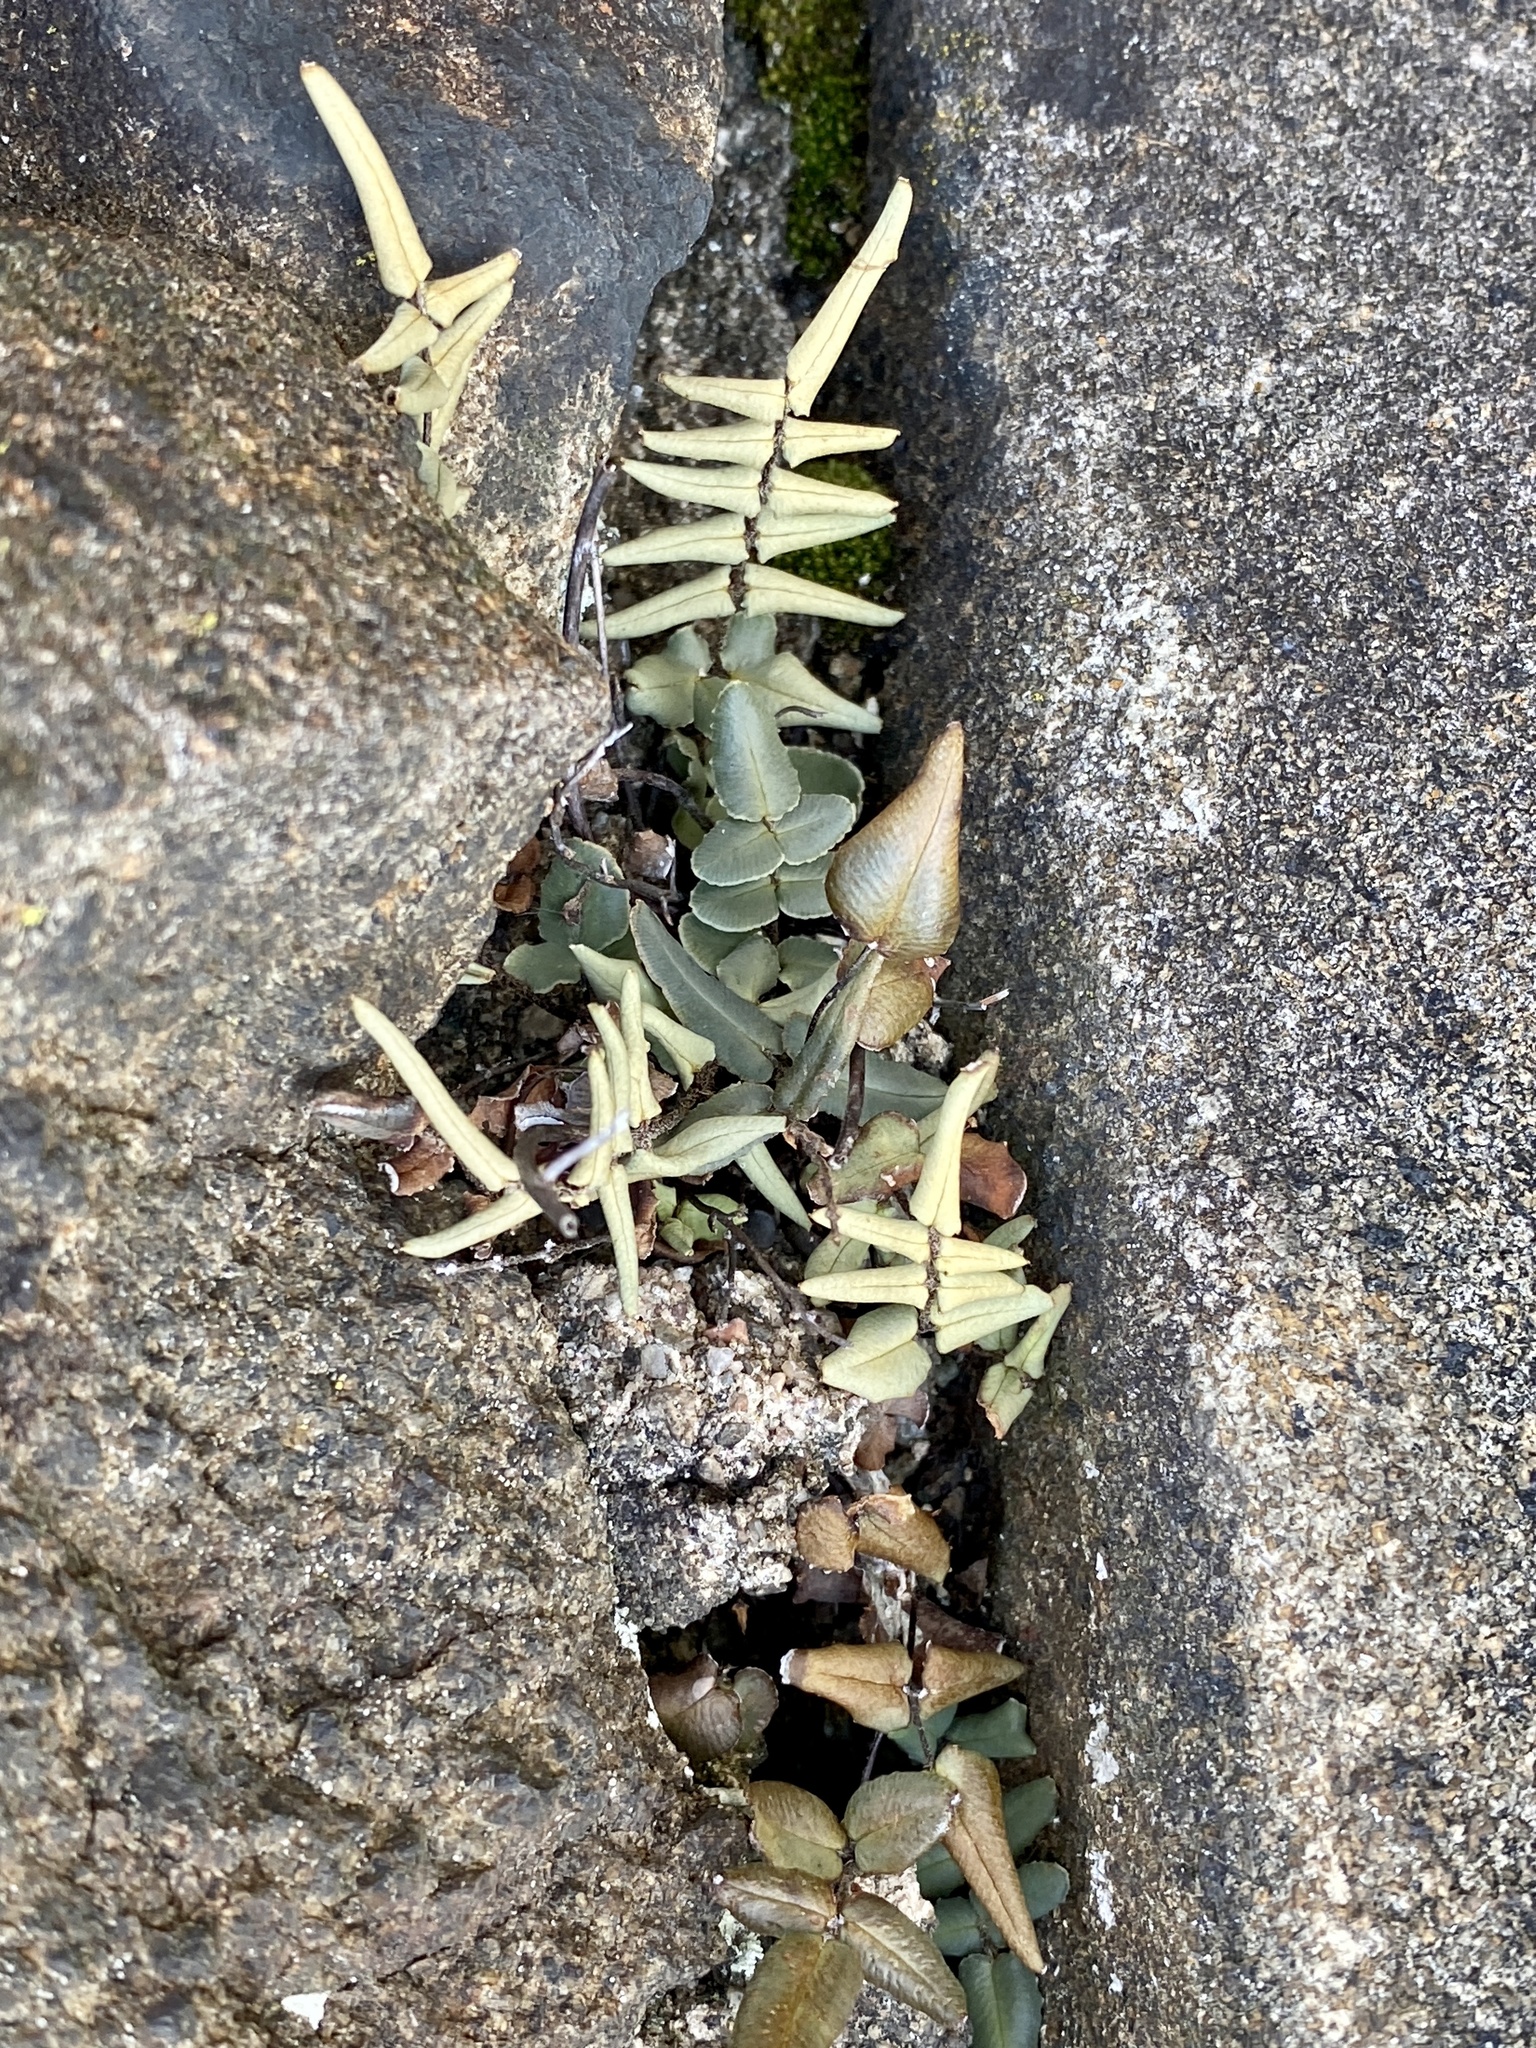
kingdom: Plantae
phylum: Tracheophyta
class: Polypodiopsida
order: Polypodiales
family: Pteridaceae
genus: Pellaea
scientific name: Pellaea atropurpurea
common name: Hairy cliffbrake
